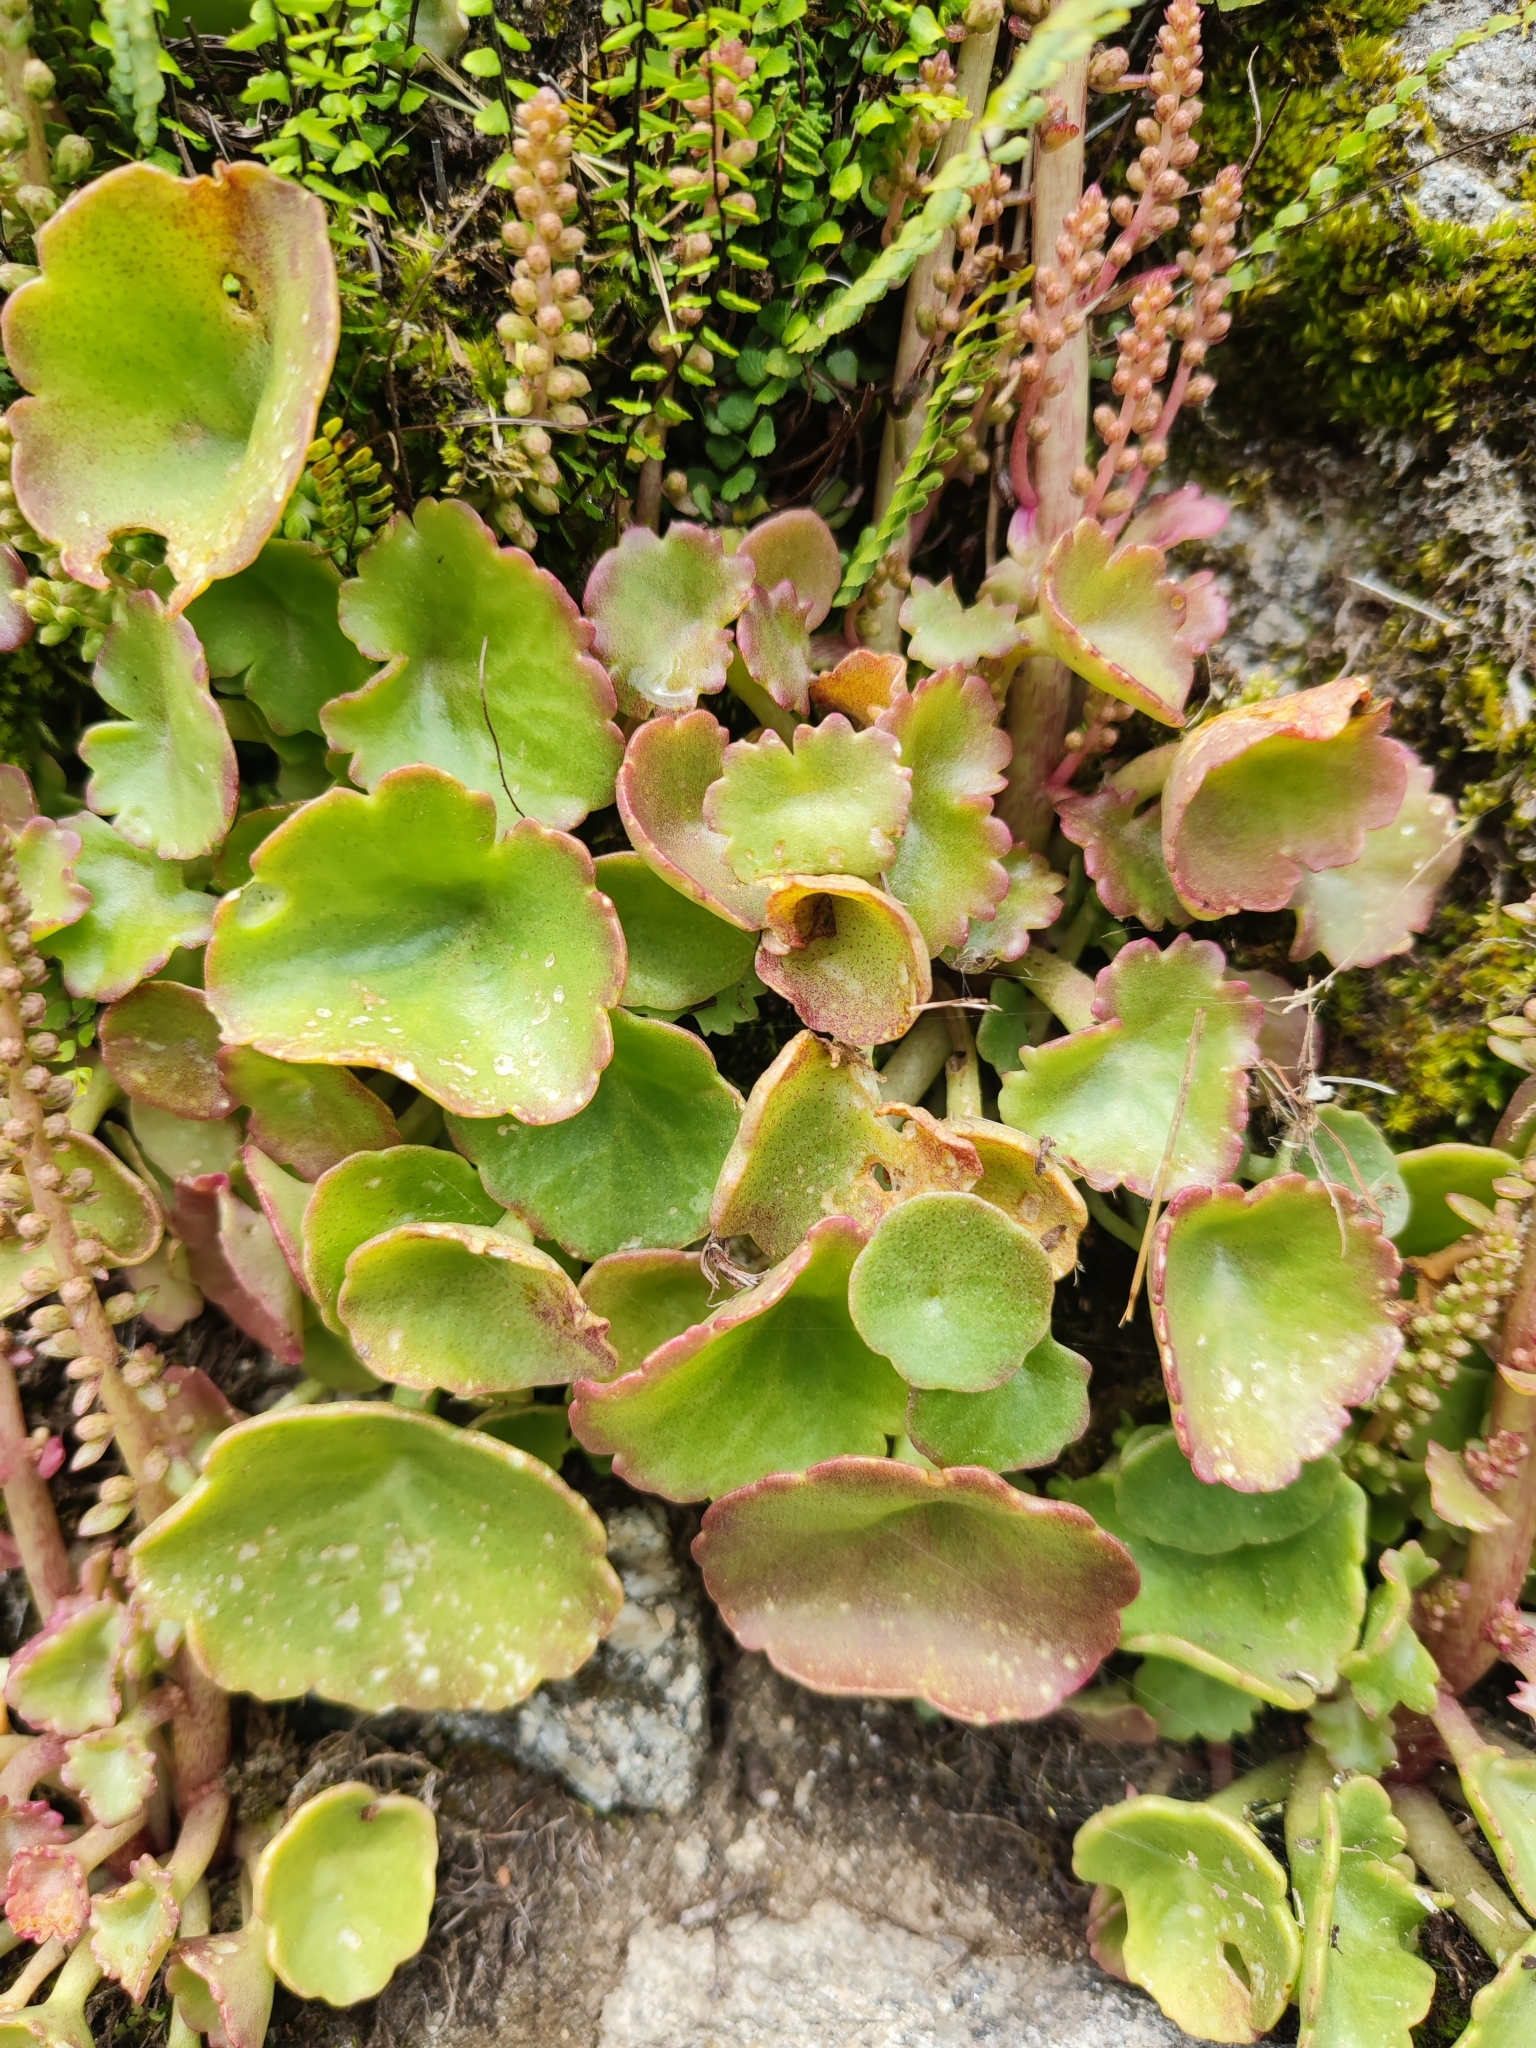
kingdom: Plantae
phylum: Tracheophyta
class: Magnoliopsida
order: Saxifragales
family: Crassulaceae
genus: Umbilicus
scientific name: Umbilicus rupestris
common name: Navelwort
